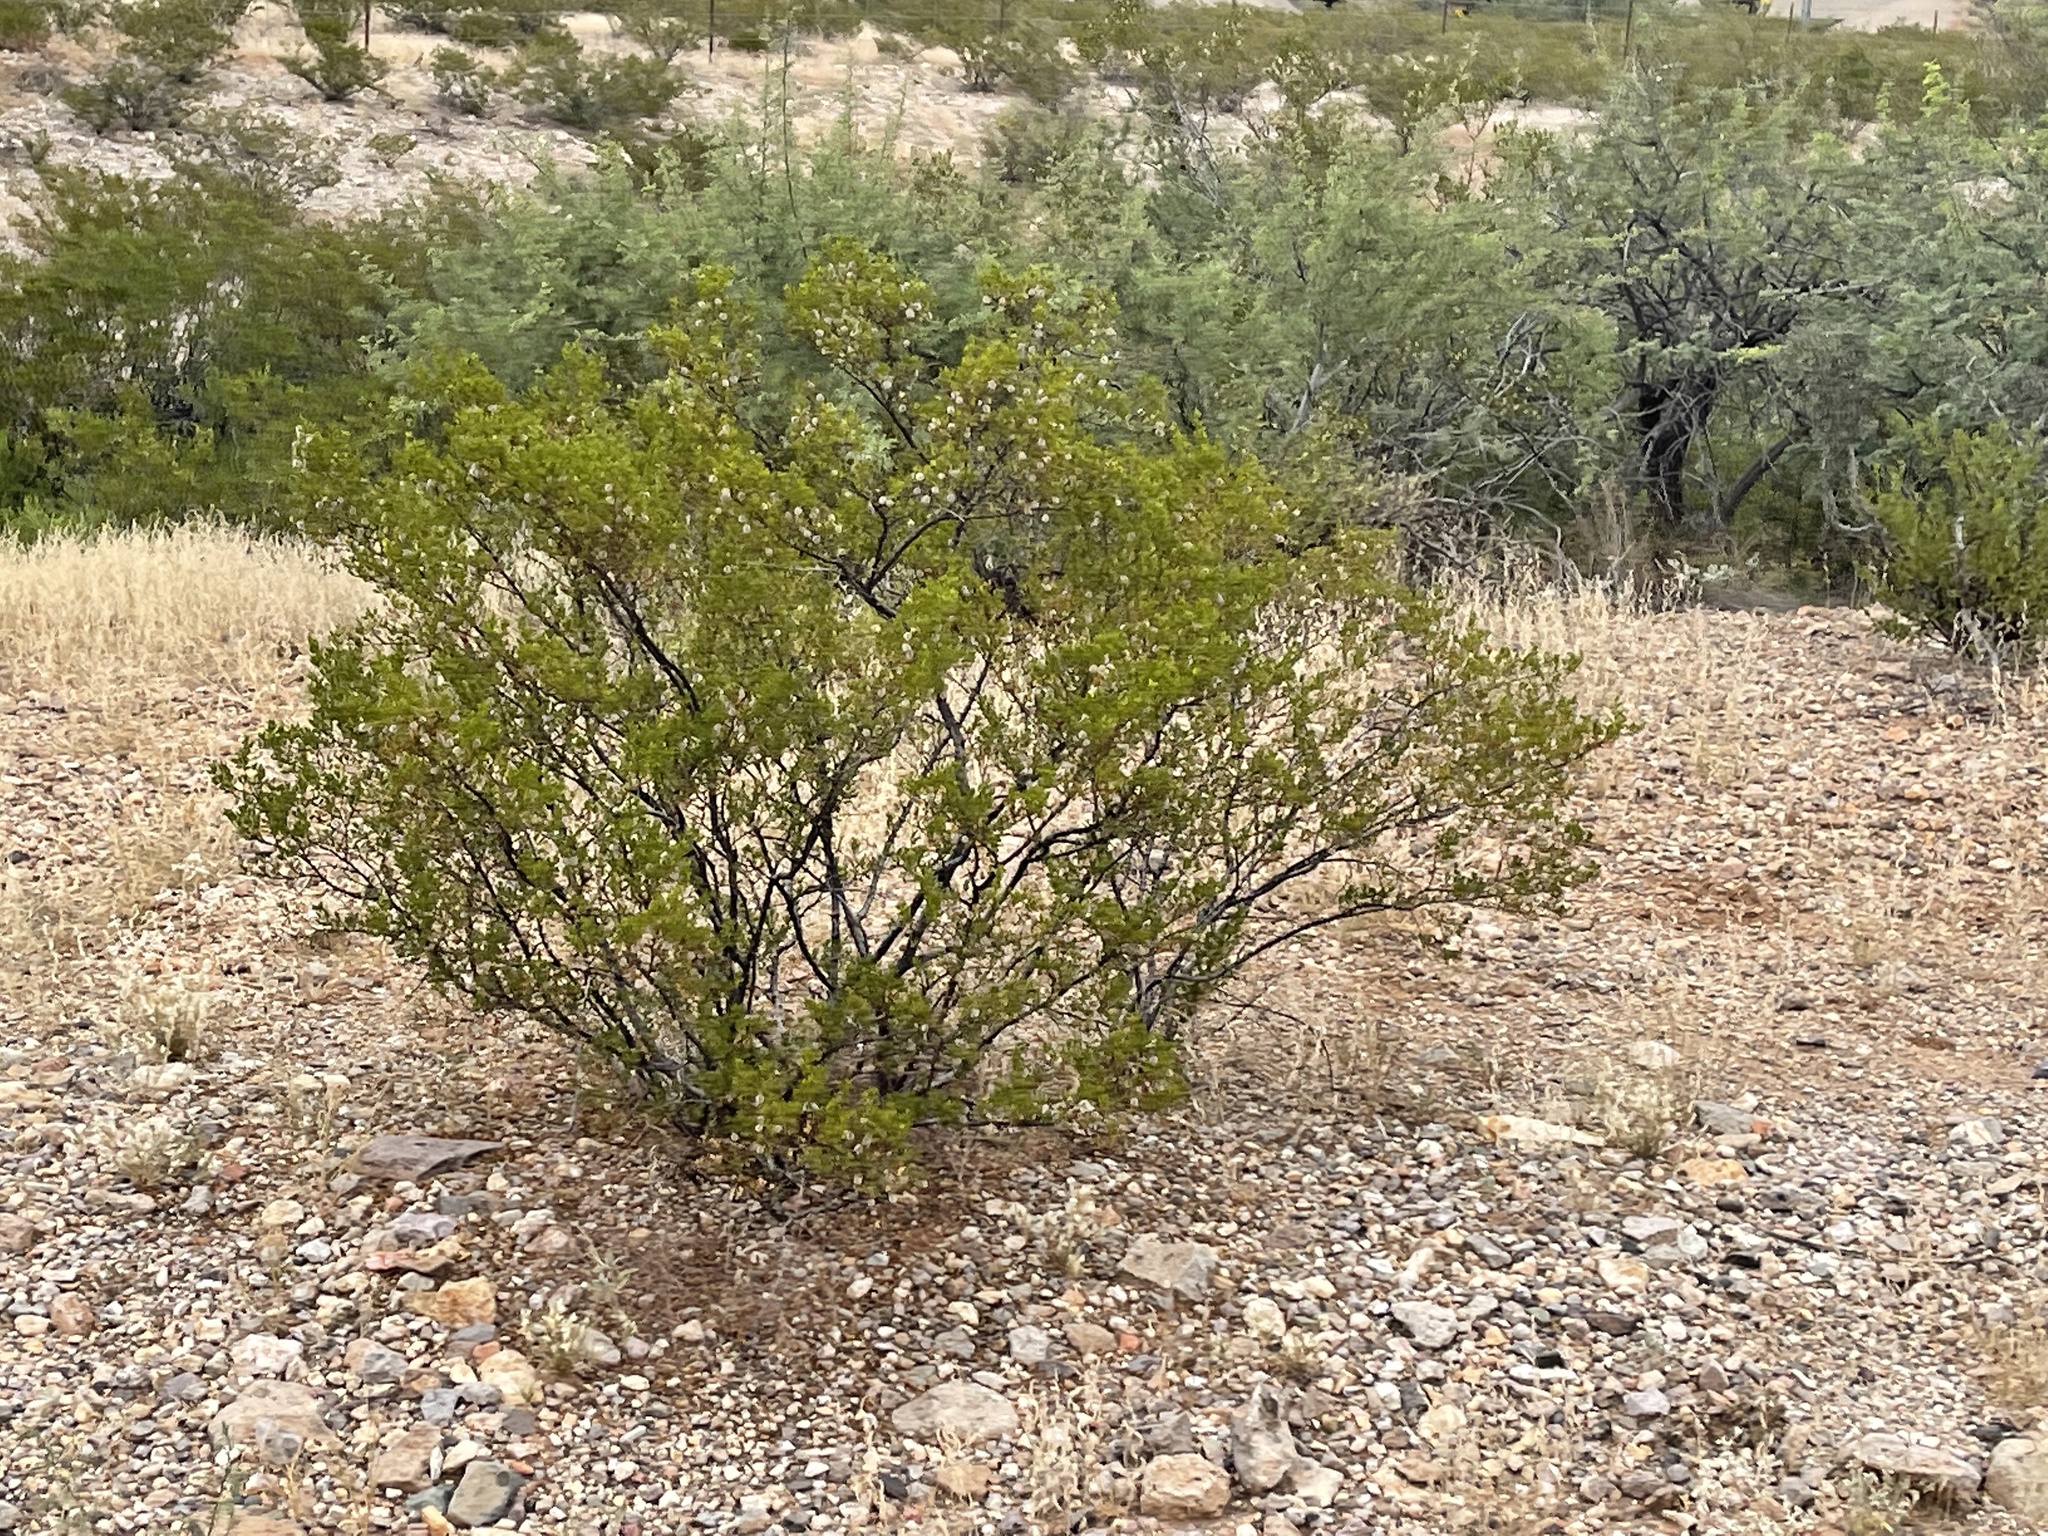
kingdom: Plantae
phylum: Tracheophyta
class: Magnoliopsida
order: Zygophyllales
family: Zygophyllaceae
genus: Larrea
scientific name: Larrea tridentata
